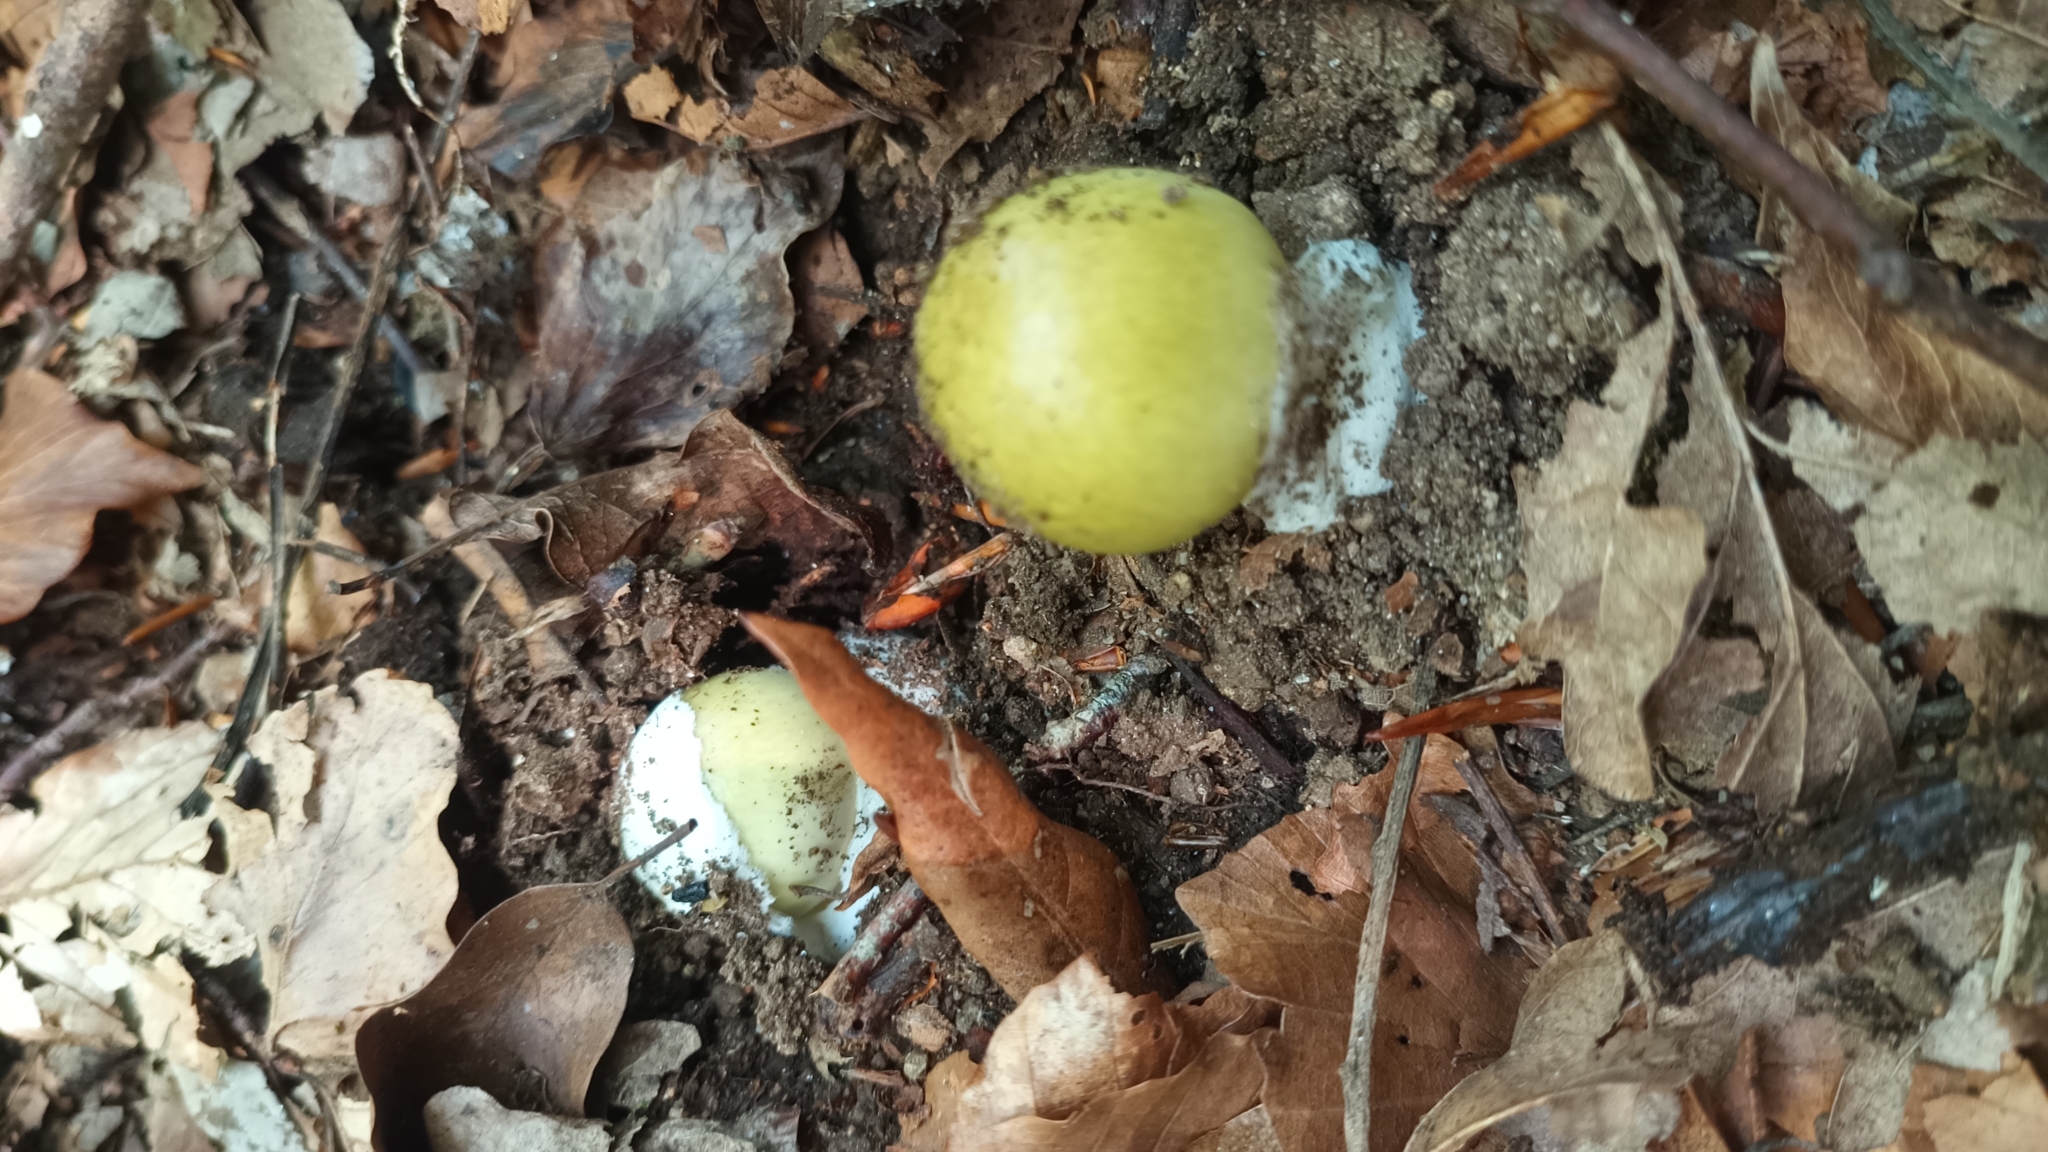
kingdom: Fungi
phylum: Basidiomycota
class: Agaricomycetes
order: Agaricales
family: Amanitaceae
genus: Amanita
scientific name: Amanita phalloides
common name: Death cap
